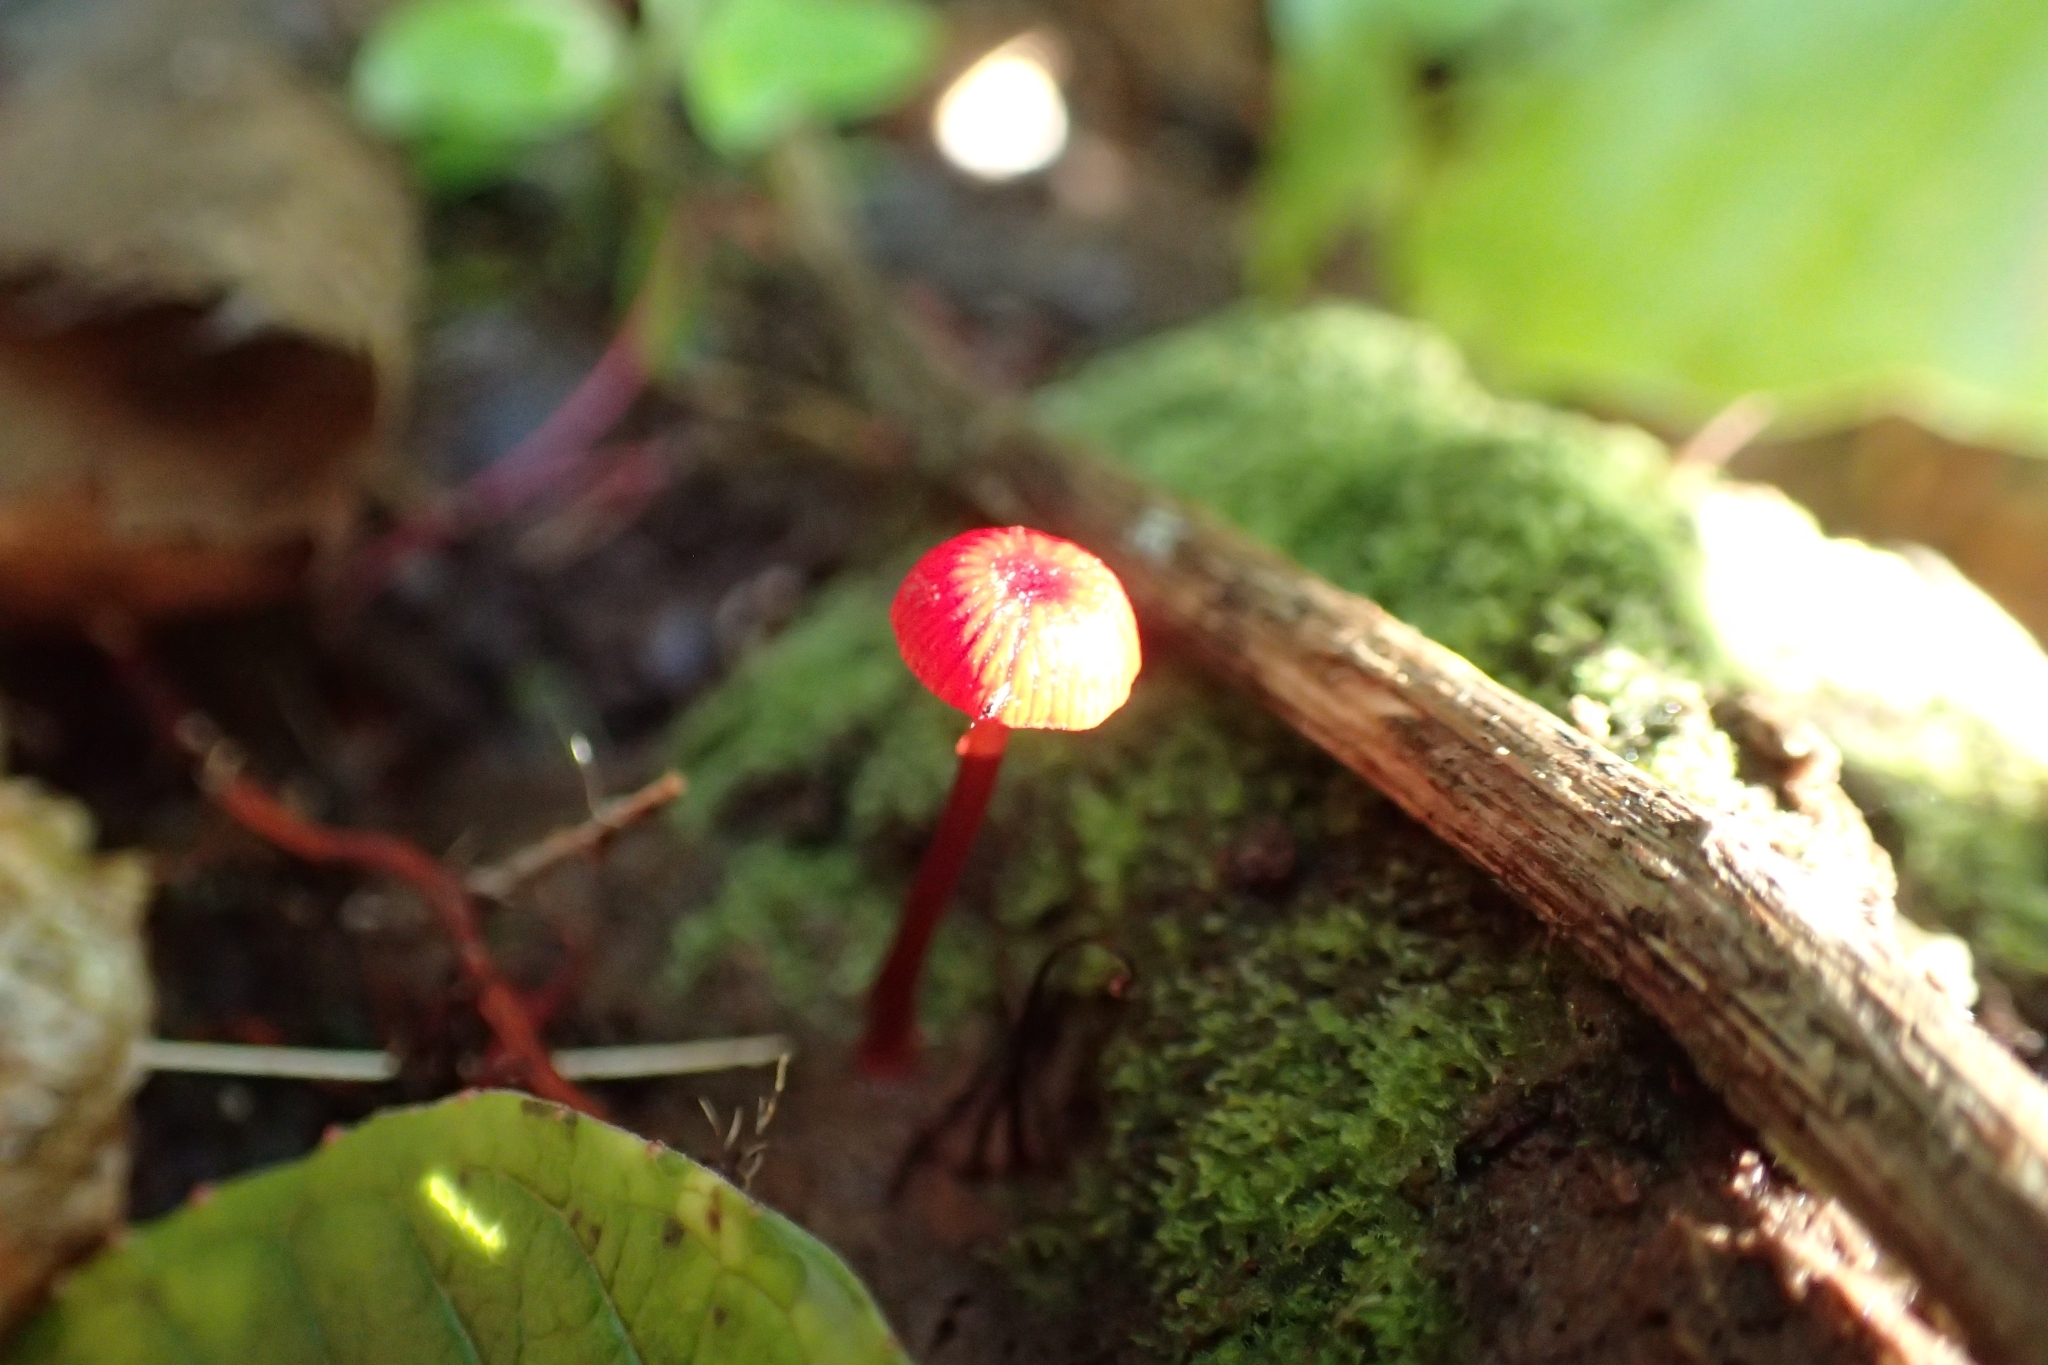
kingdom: Fungi
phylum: Basidiomycota
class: Agaricomycetes
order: Agaricales
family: Mycenaceae
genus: Cruentomycena
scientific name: Cruentomycena viscidocruenta
